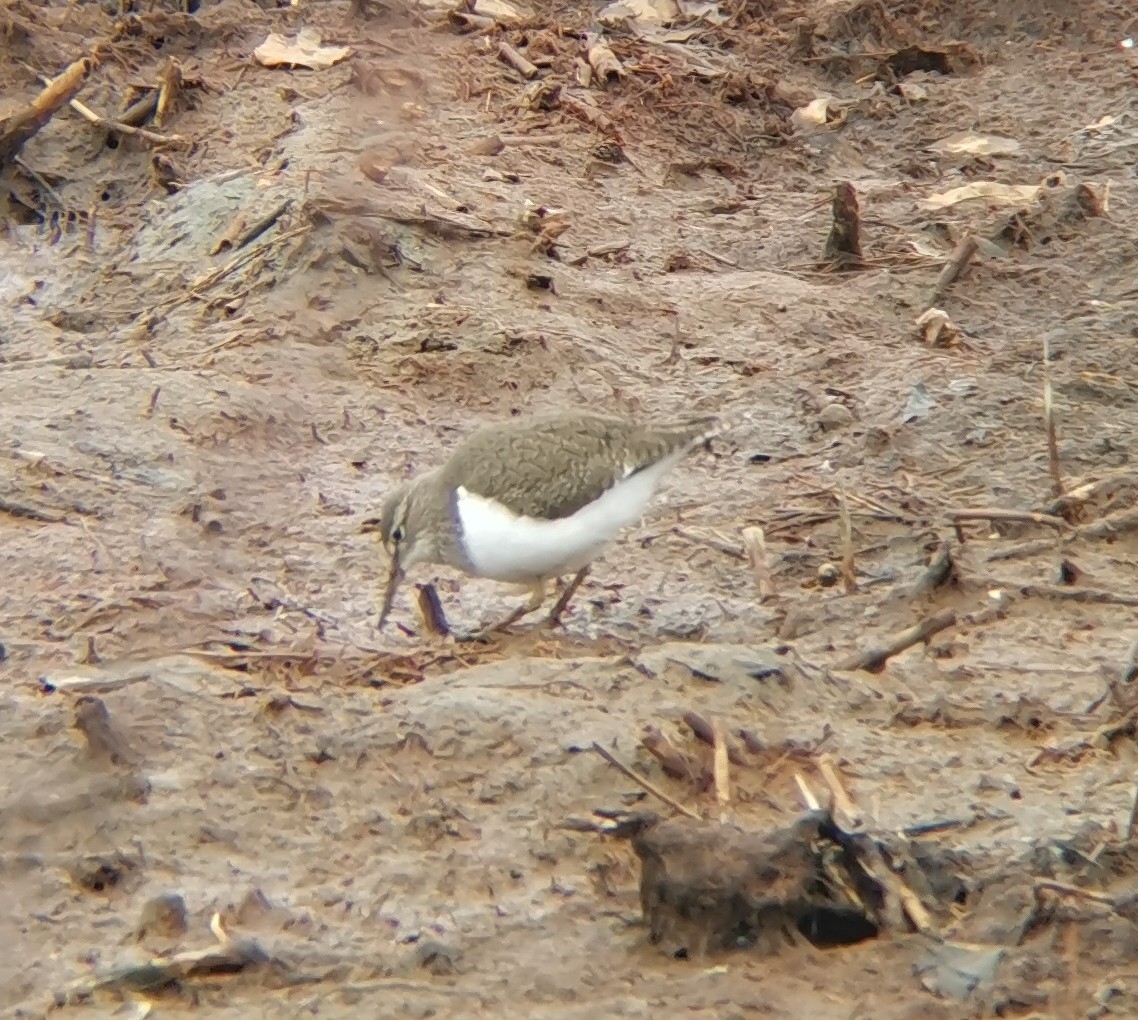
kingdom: Animalia
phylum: Chordata
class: Aves
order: Charadriiformes
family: Scolopacidae
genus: Actitis
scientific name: Actitis hypoleucos
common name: Common sandpiper
